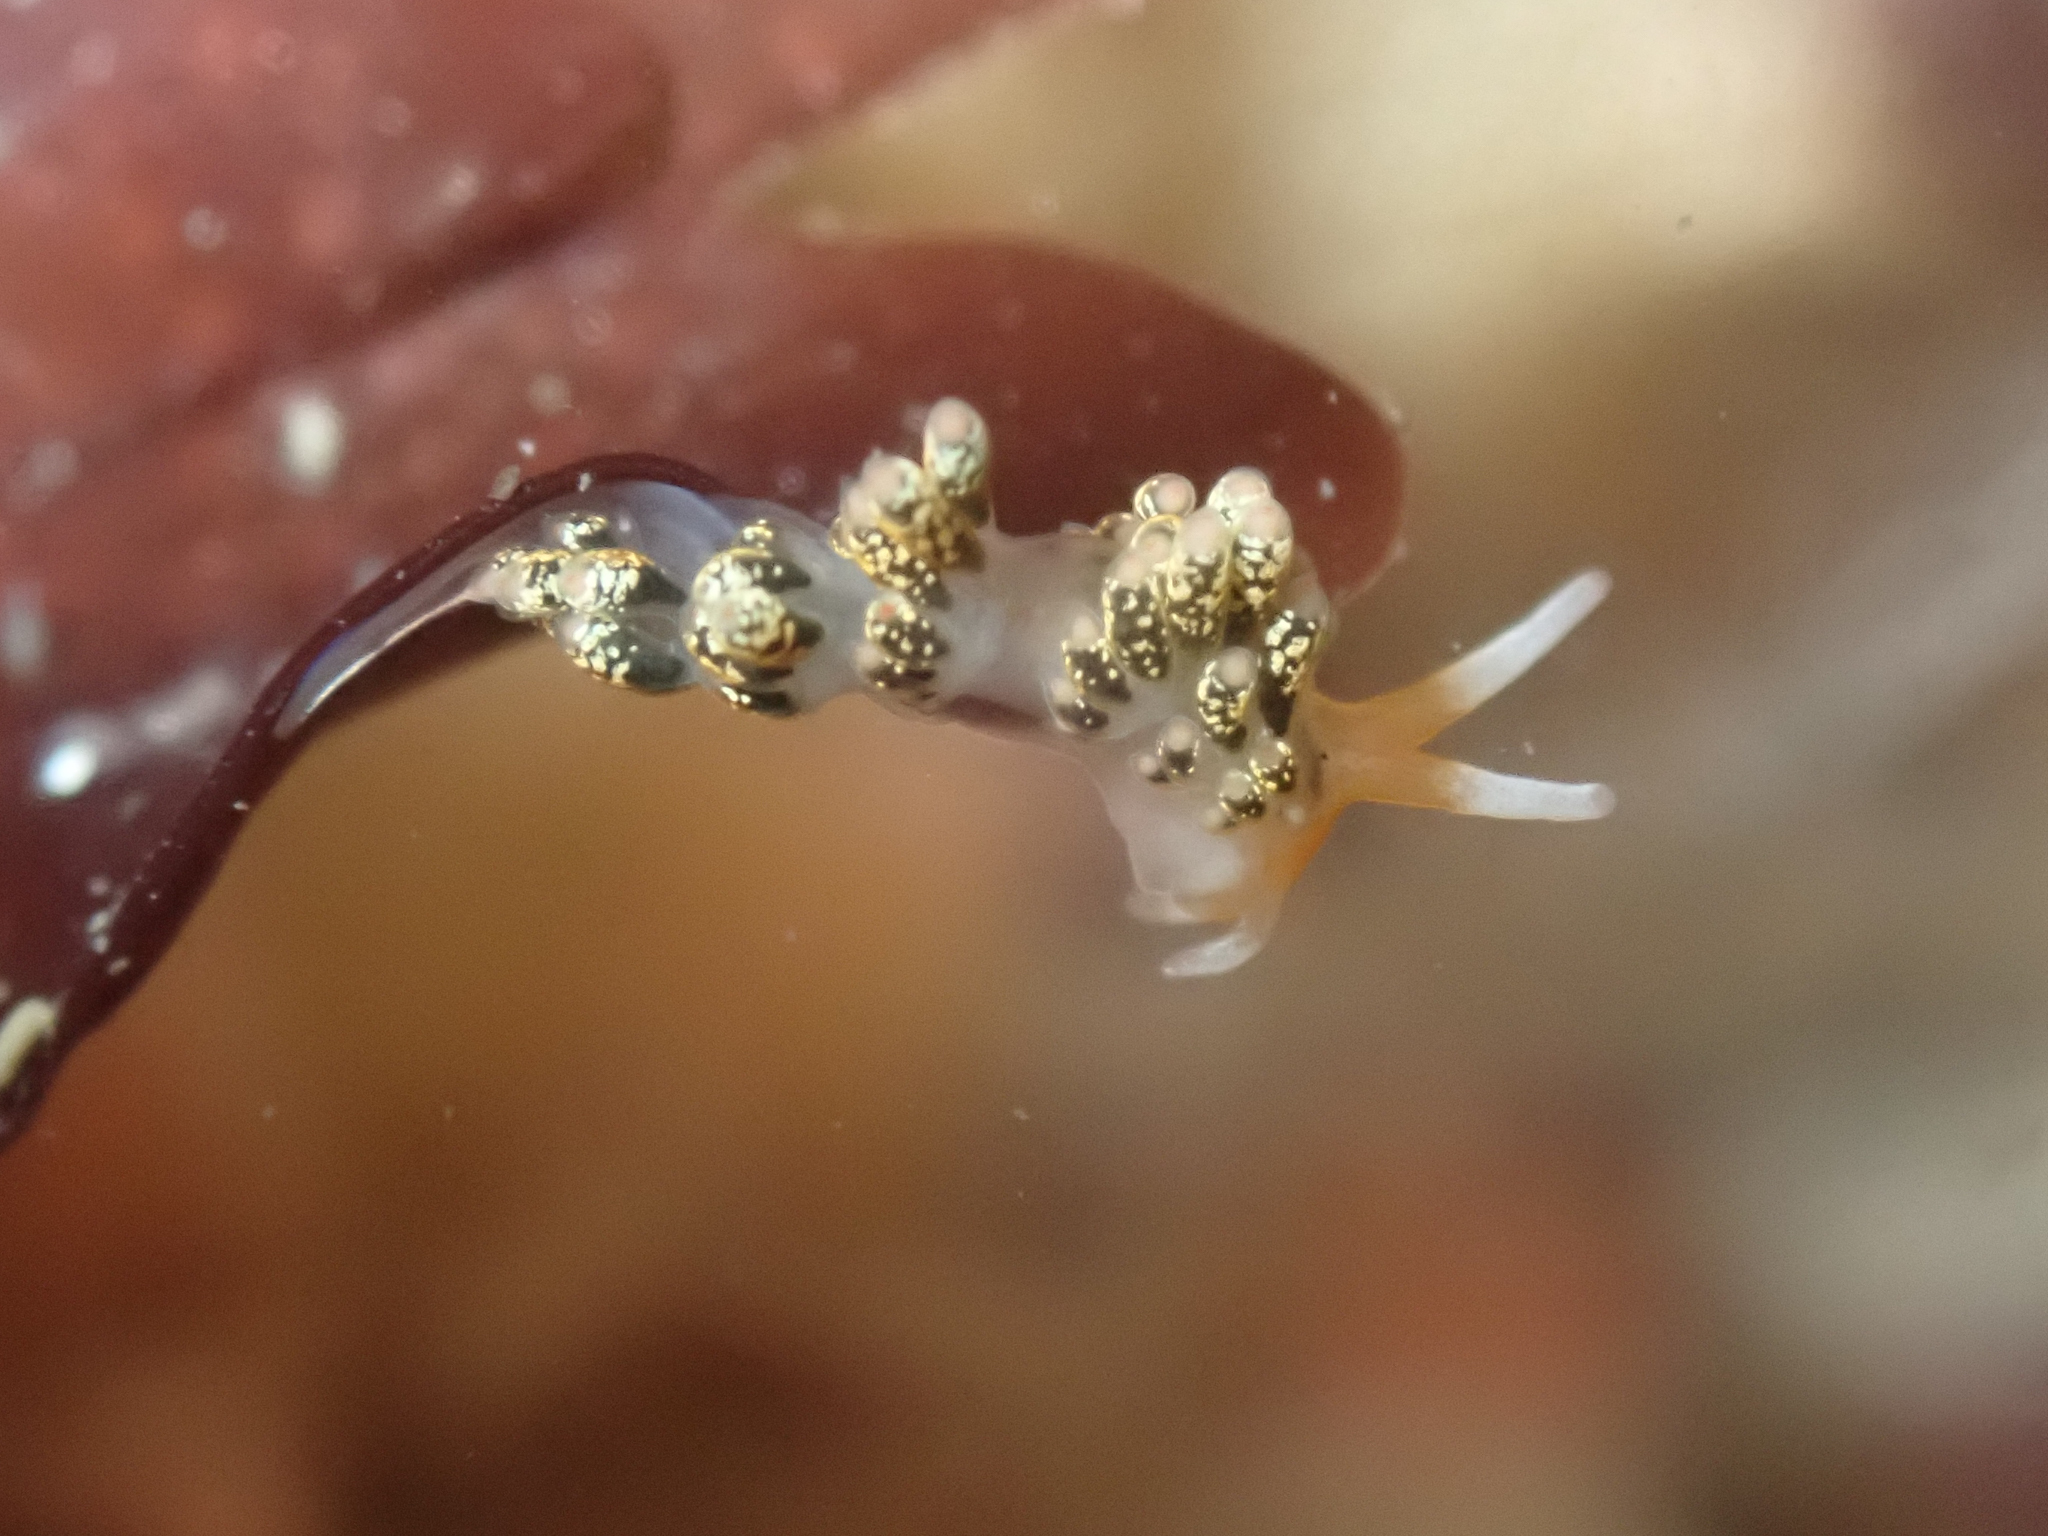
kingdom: Animalia
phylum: Mollusca
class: Gastropoda
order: Nudibranchia
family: Trinchesiidae
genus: Diaphoreolis
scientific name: Diaphoreolis flavovulta
